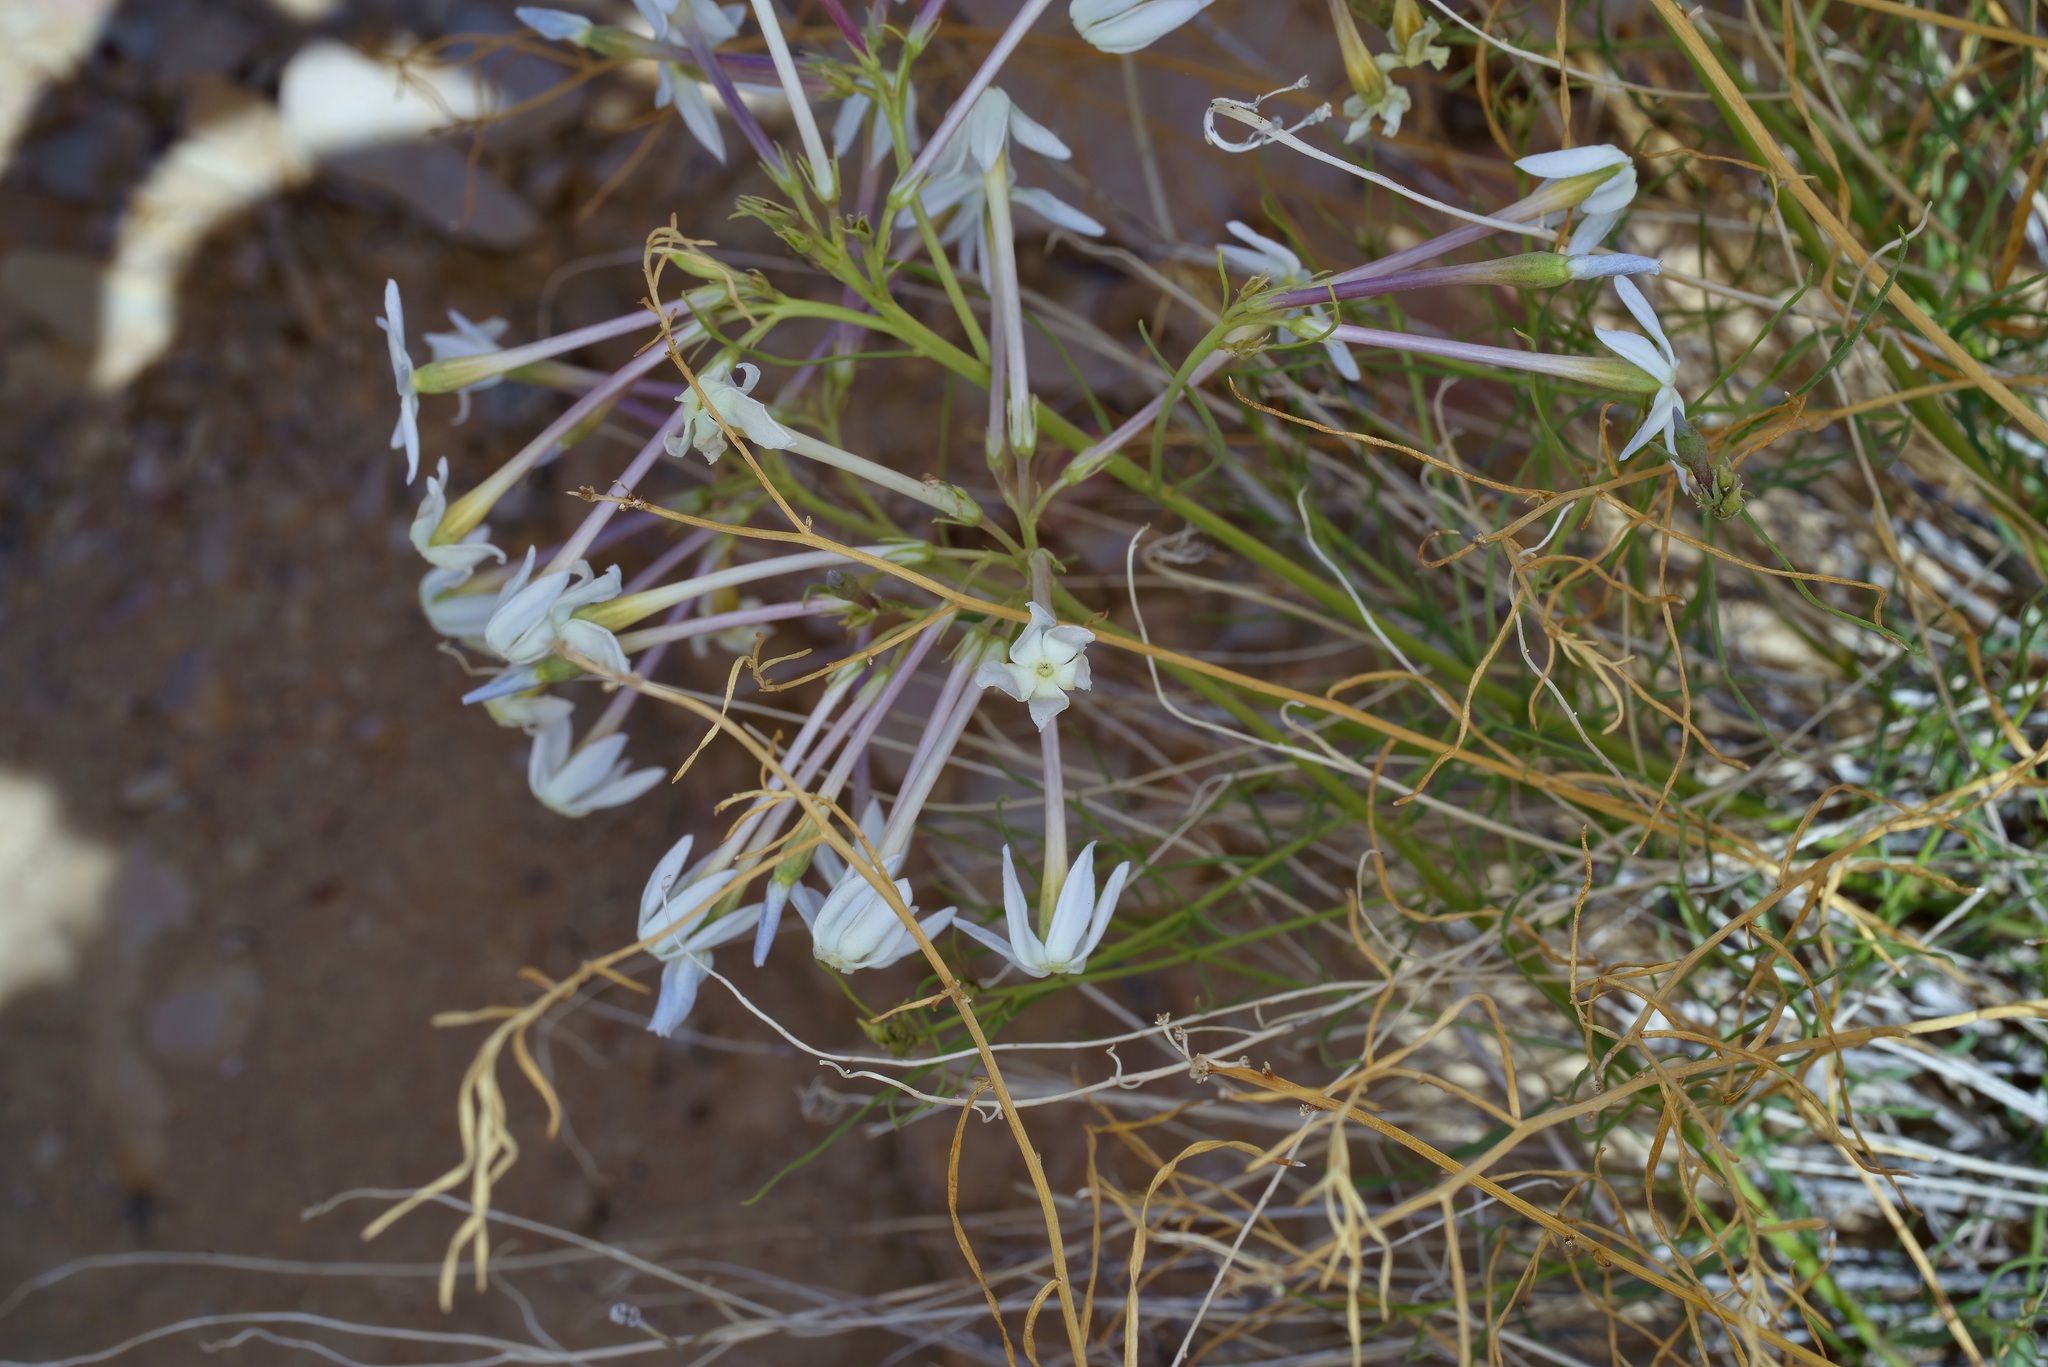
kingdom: Plantae
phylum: Tracheophyta
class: Magnoliopsida
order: Gentianales
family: Apocynaceae
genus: Amsonia
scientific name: Amsonia longiflora
